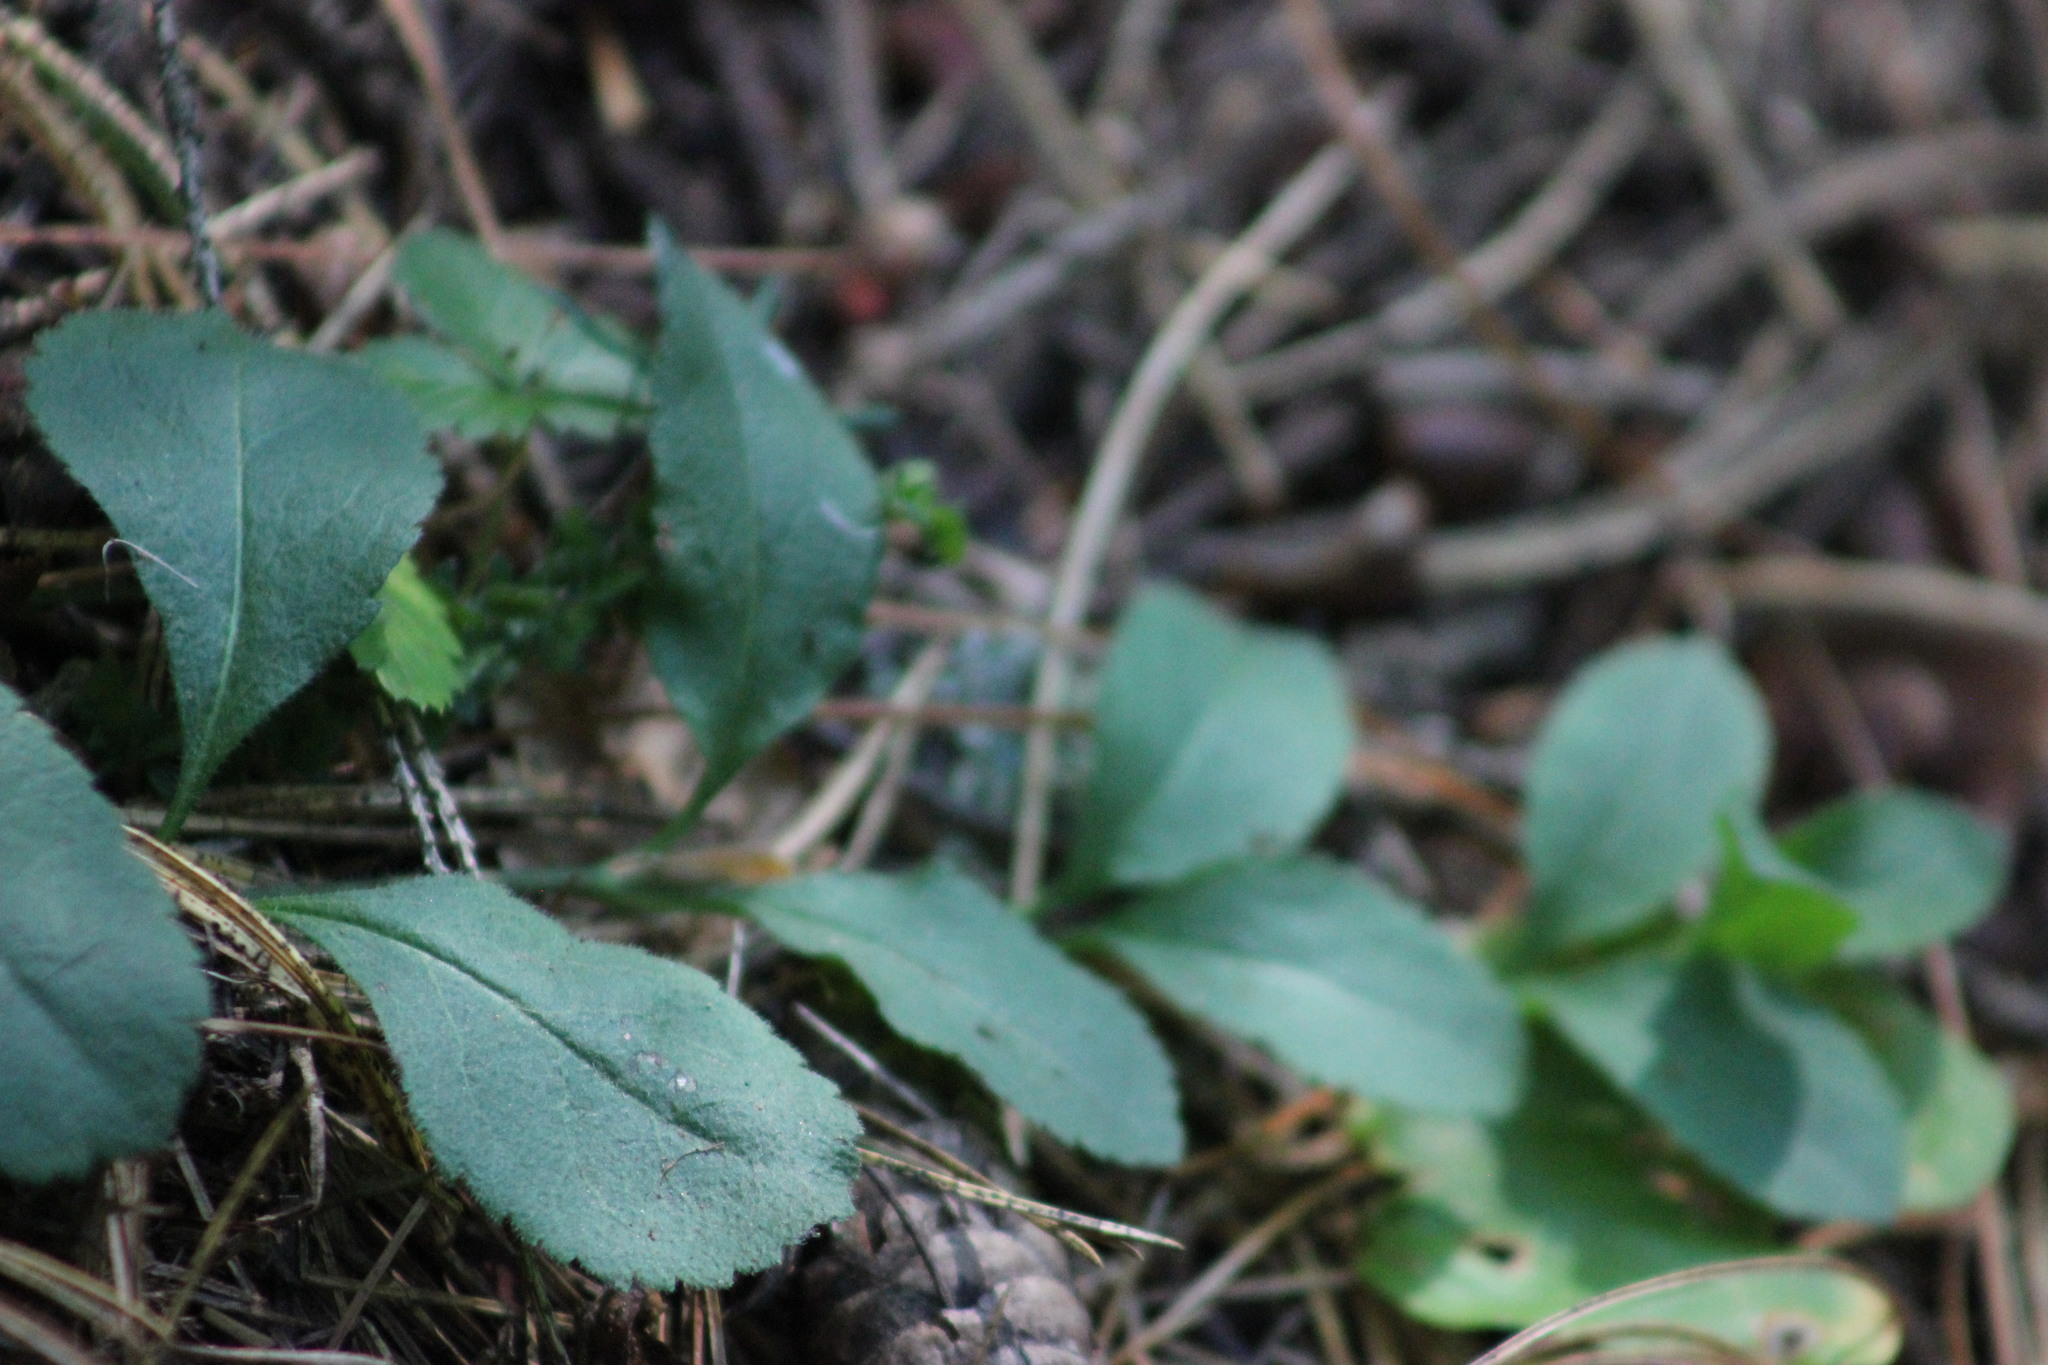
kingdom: Plantae
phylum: Tracheophyta
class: Magnoliopsida
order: Lamiales
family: Plantaginaceae
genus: Veronica
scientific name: Veronica officinalis
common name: Common speedwell
